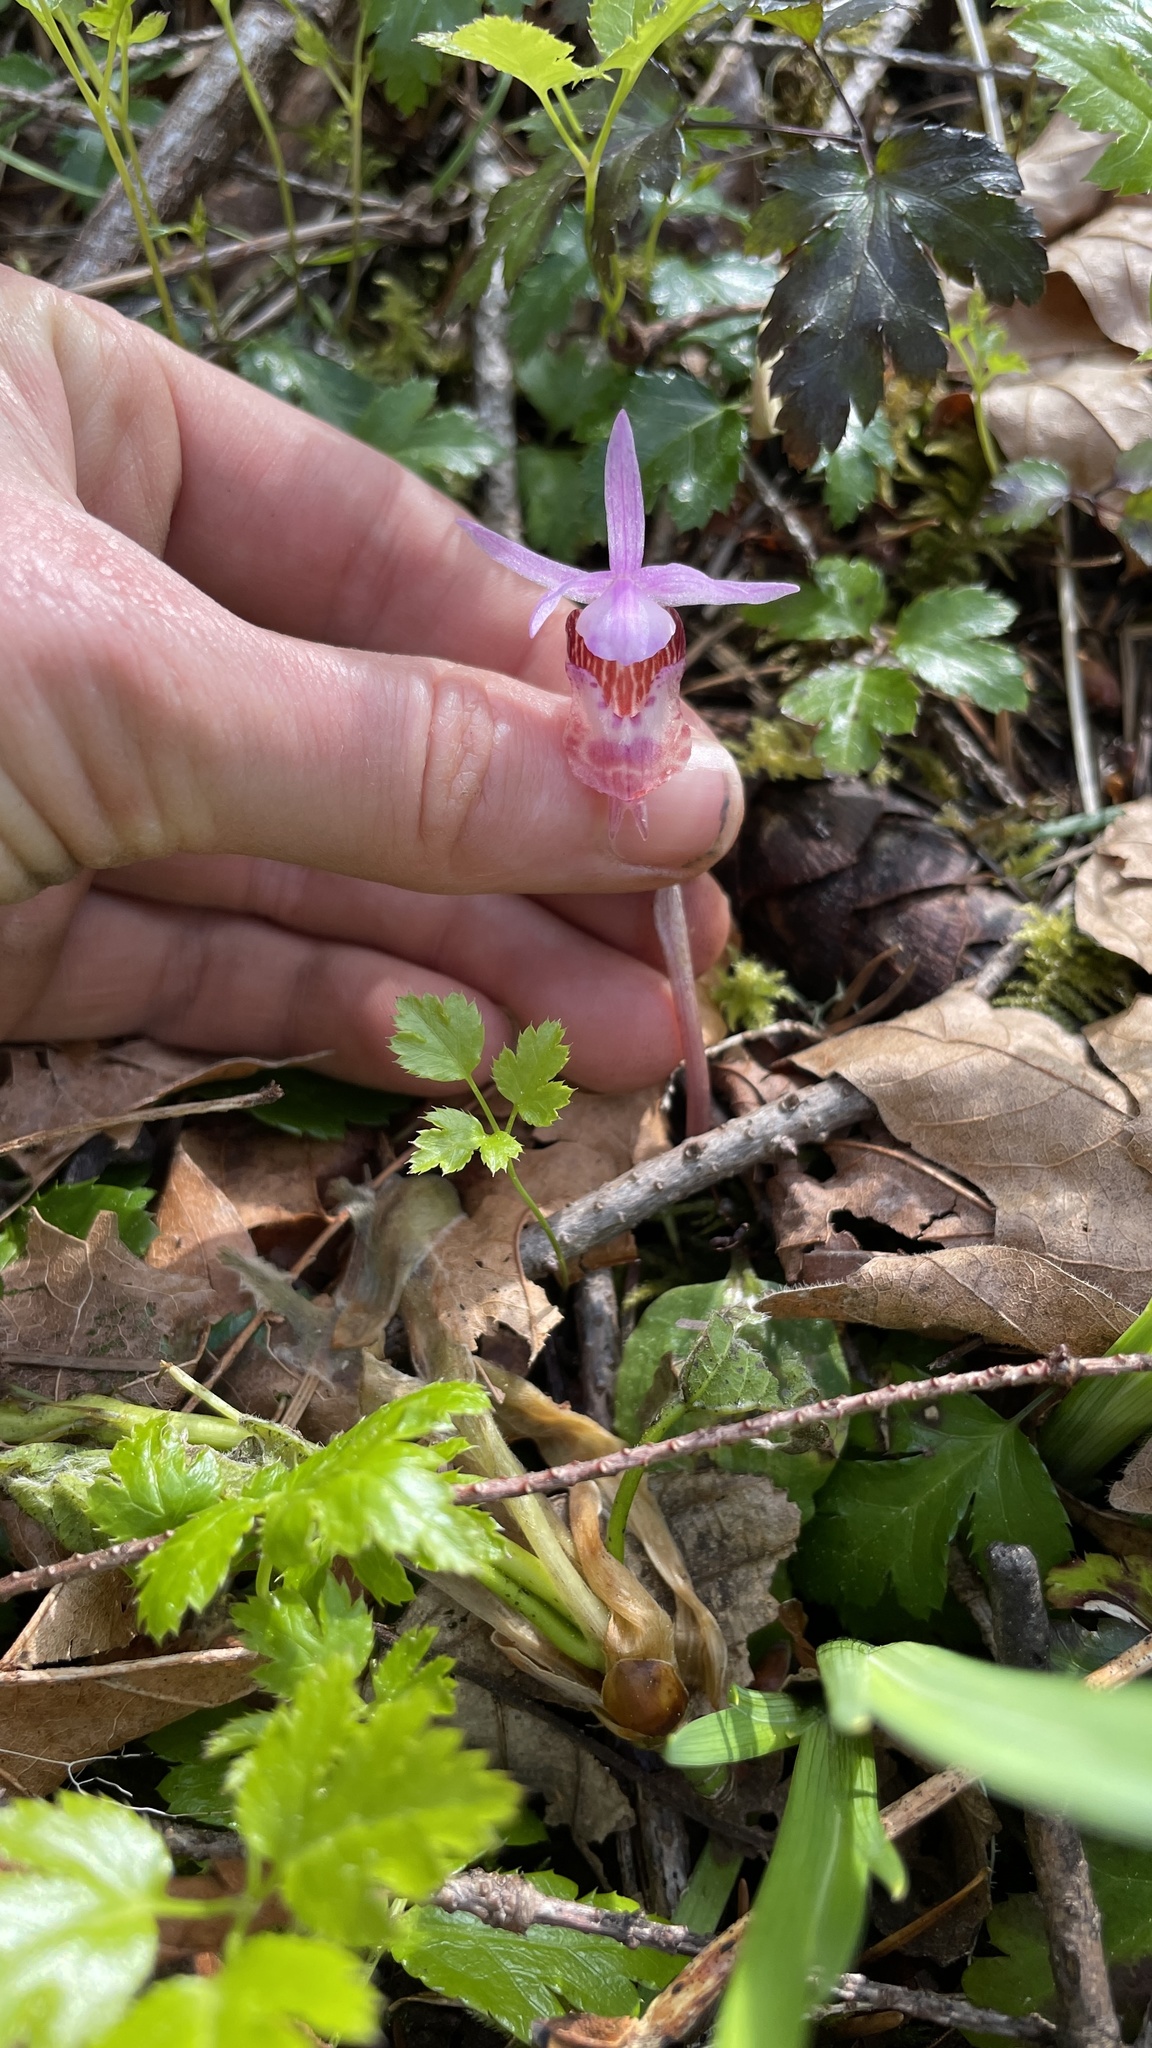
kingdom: Plantae
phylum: Tracheophyta
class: Liliopsida
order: Asparagales
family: Orchidaceae
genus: Calypso
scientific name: Calypso bulbosa
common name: Calypso
